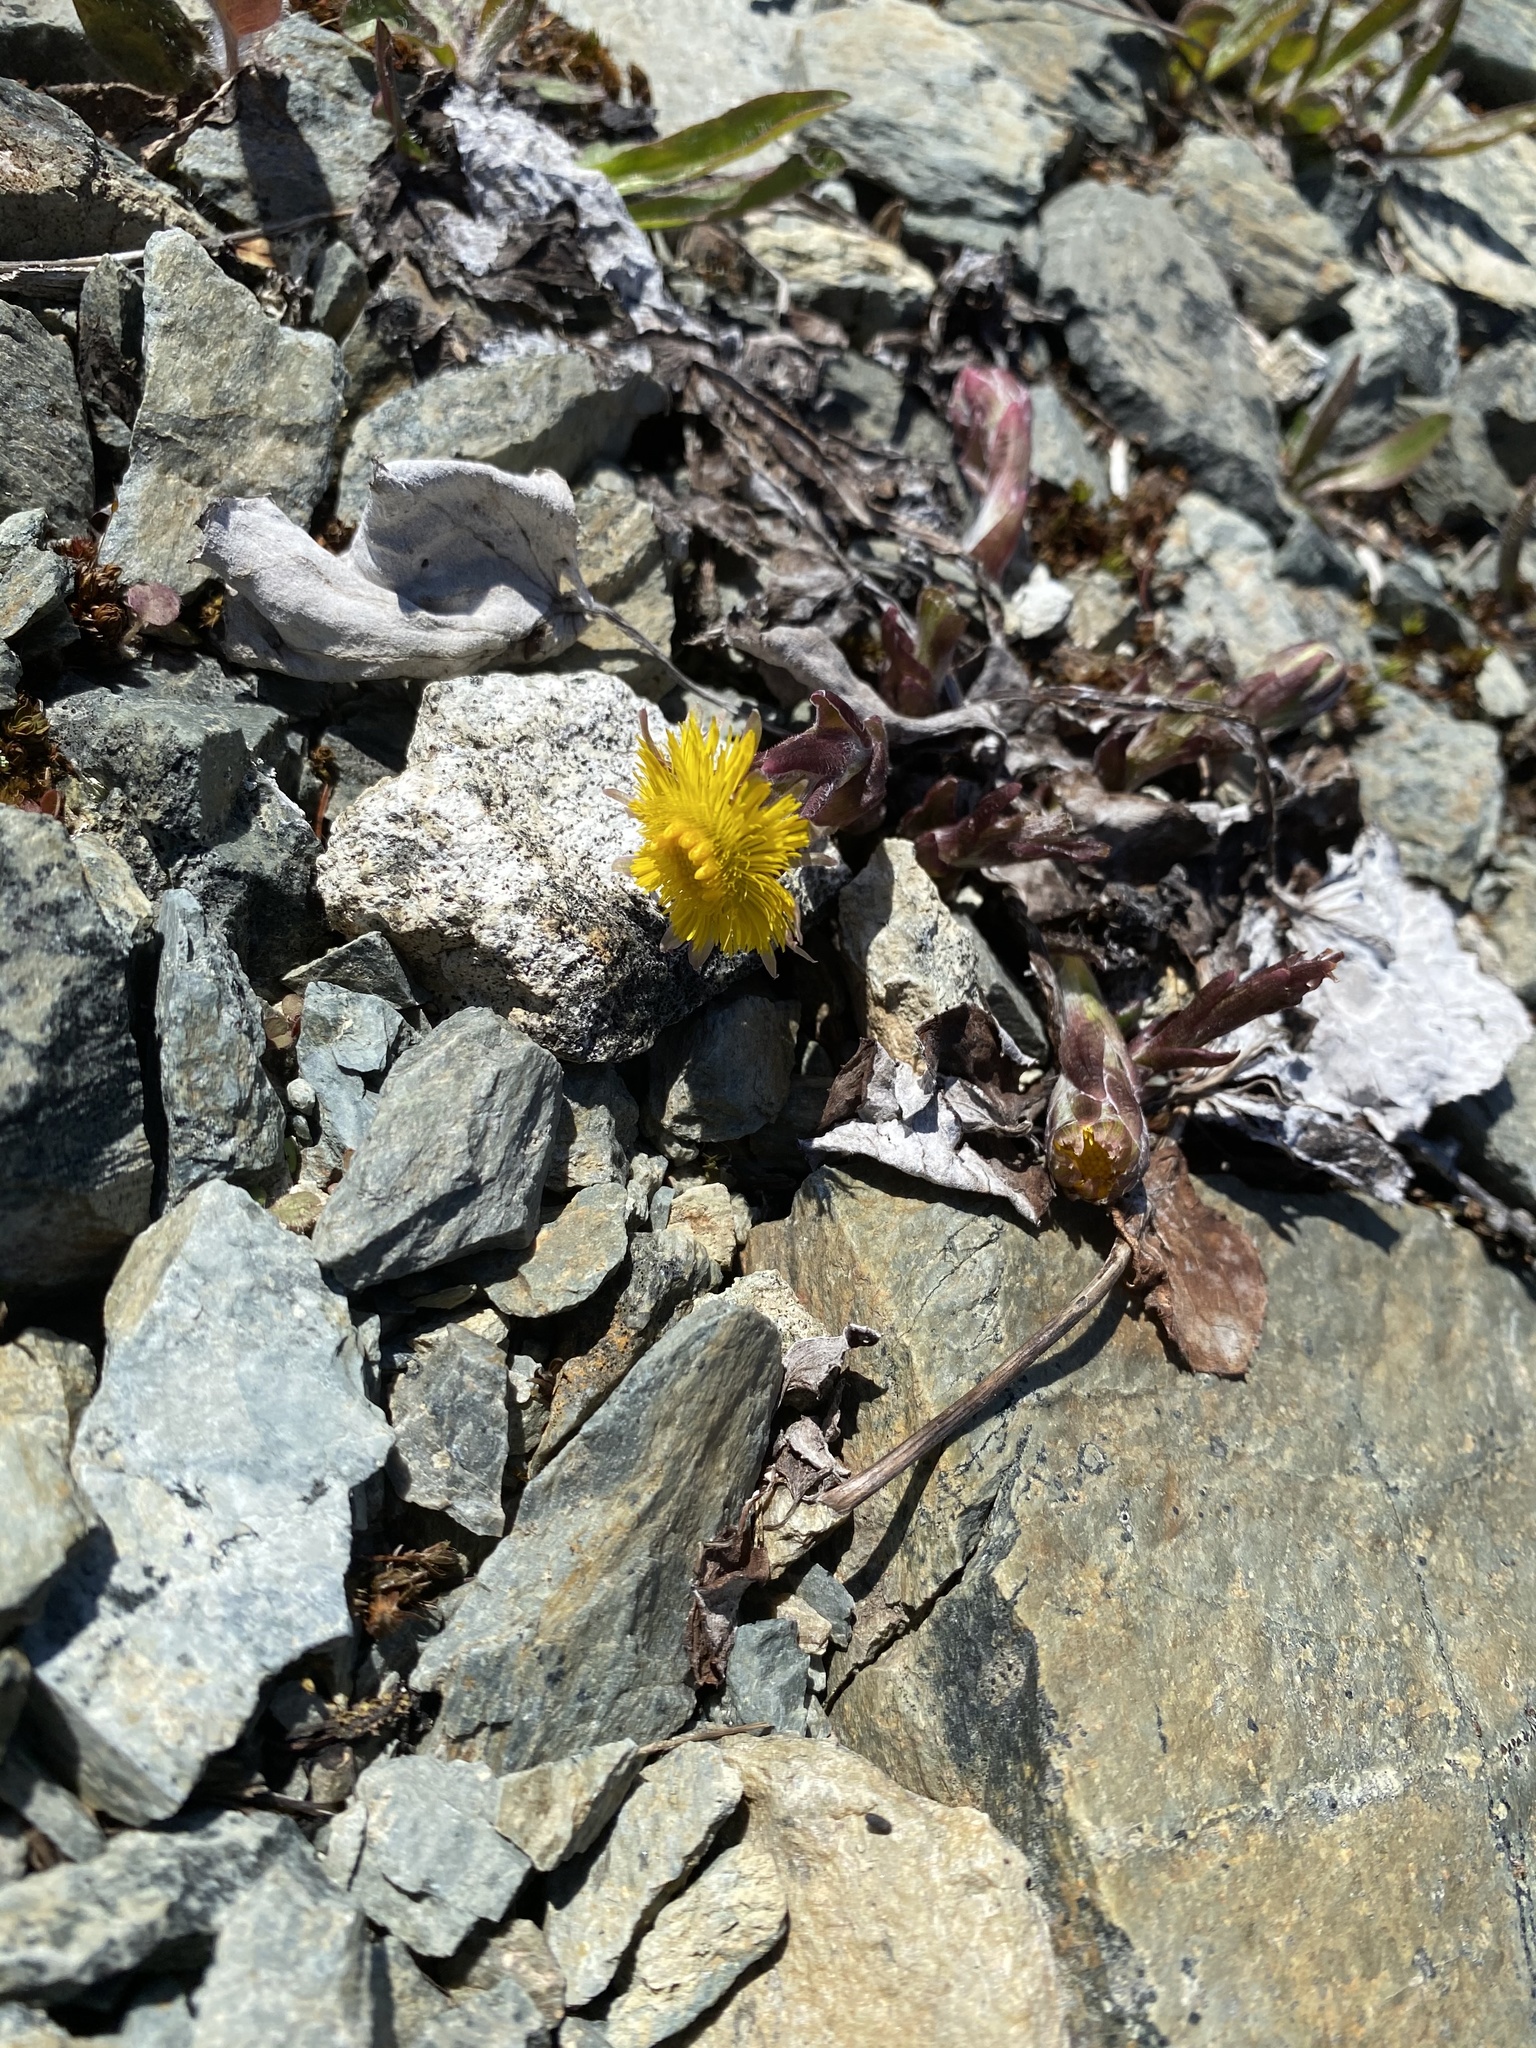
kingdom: Plantae
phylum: Tracheophyta
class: Magnoliopsida
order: Asterales
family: Asteraceae
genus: Tussilago
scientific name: Tussilago farfara
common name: Coltsfoot
